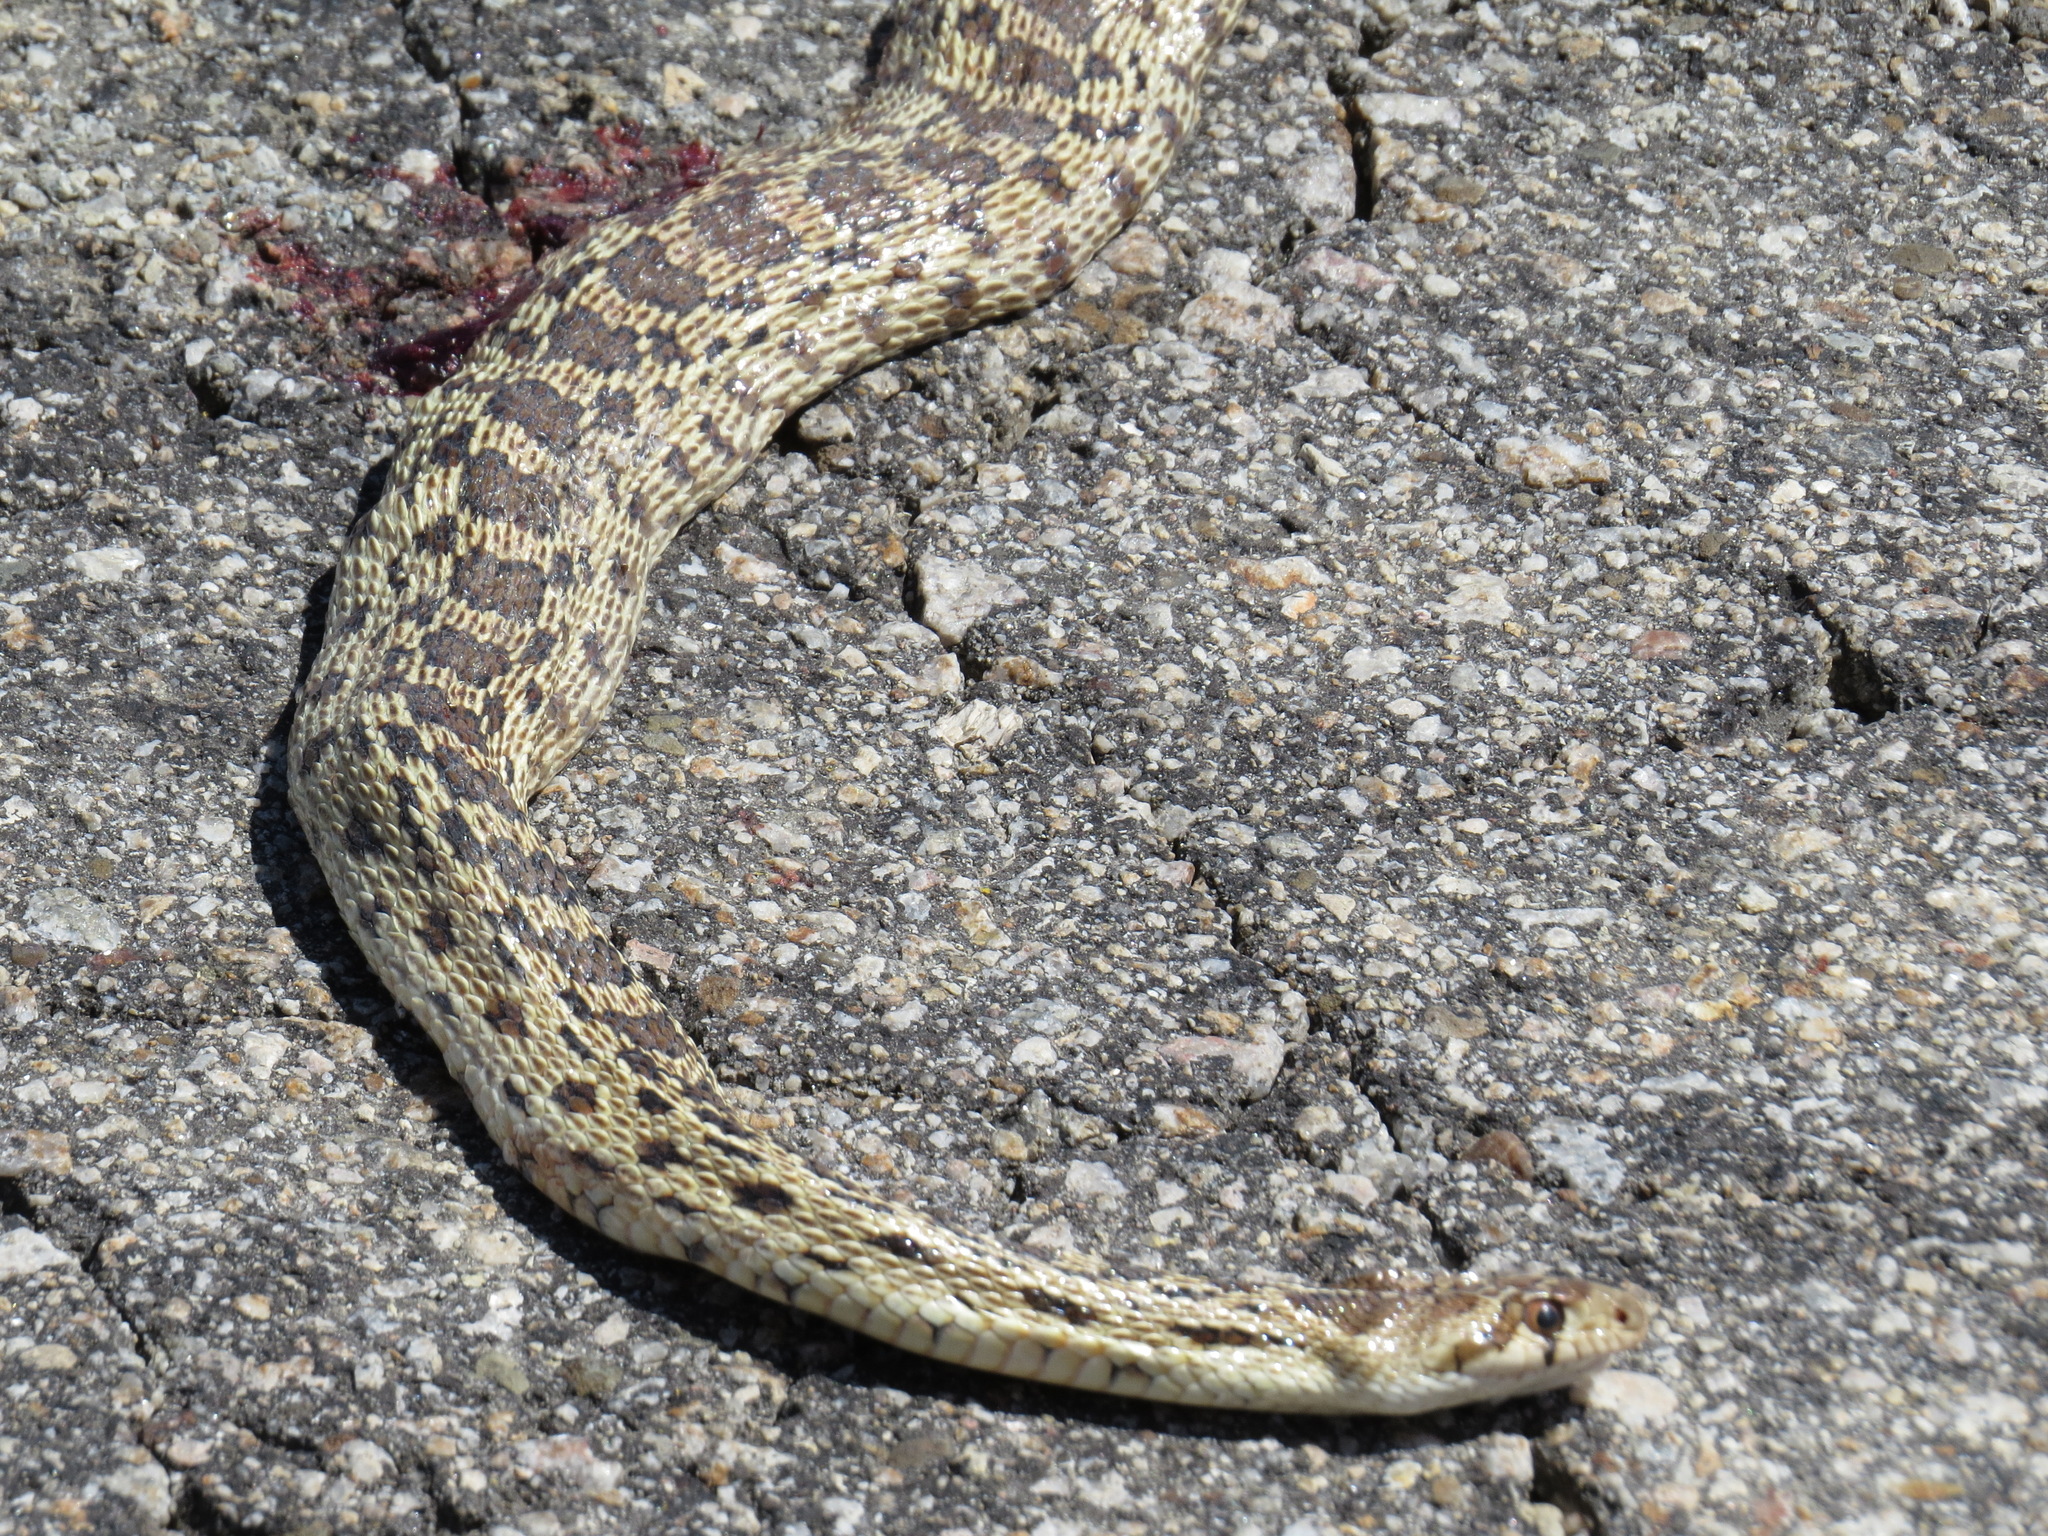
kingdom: Animalia
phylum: Chordata
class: Squamata
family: Colubridae
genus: Pituophis
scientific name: Pituophis catenifer
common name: Gopher snake
